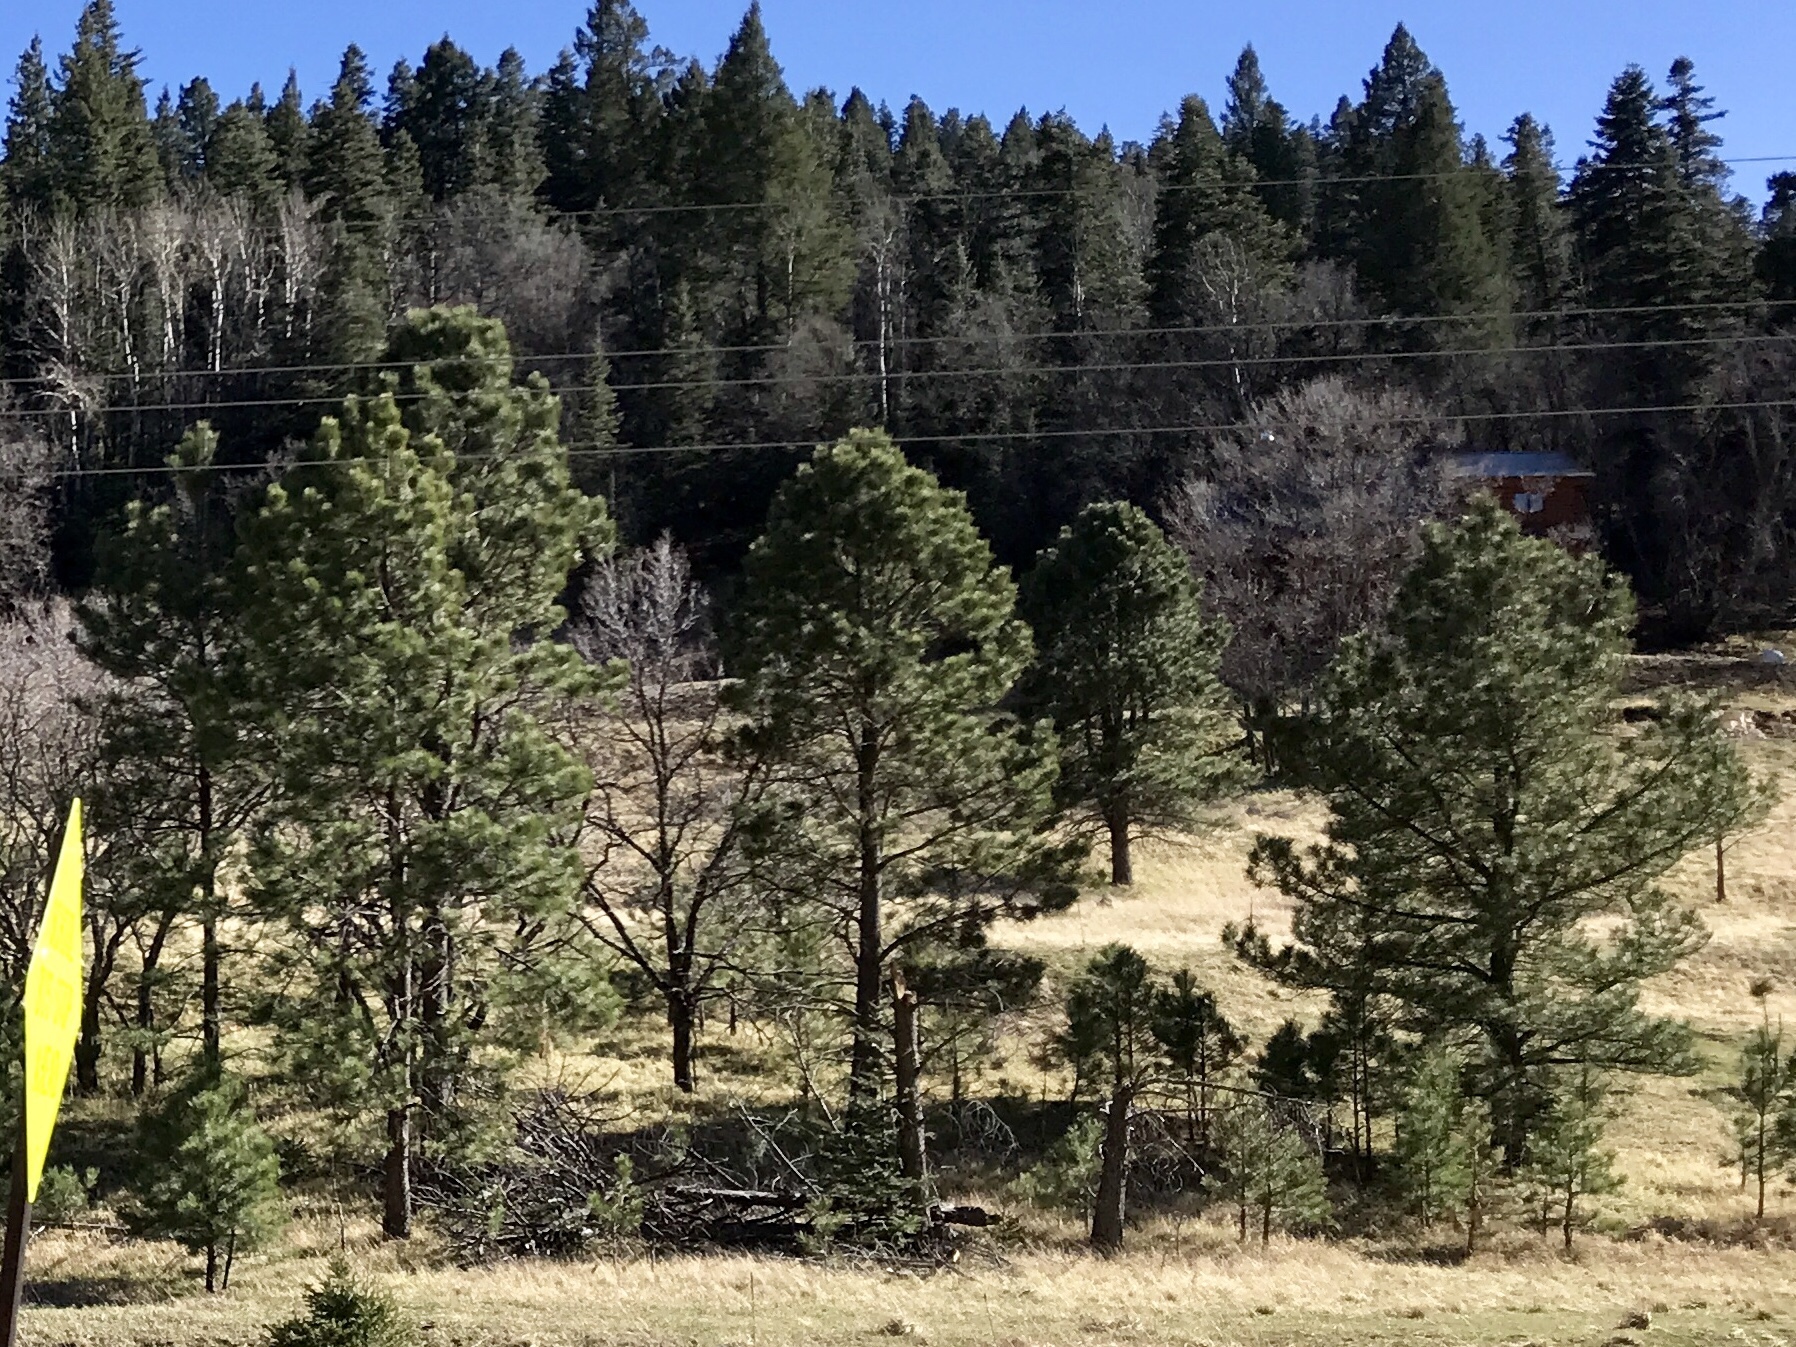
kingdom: Plantae
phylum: Tracheophyta
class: Pinopsida
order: Pinales
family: Pinaceae
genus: Pinus
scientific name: Pinus ponderosa
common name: Western yellow-pine
